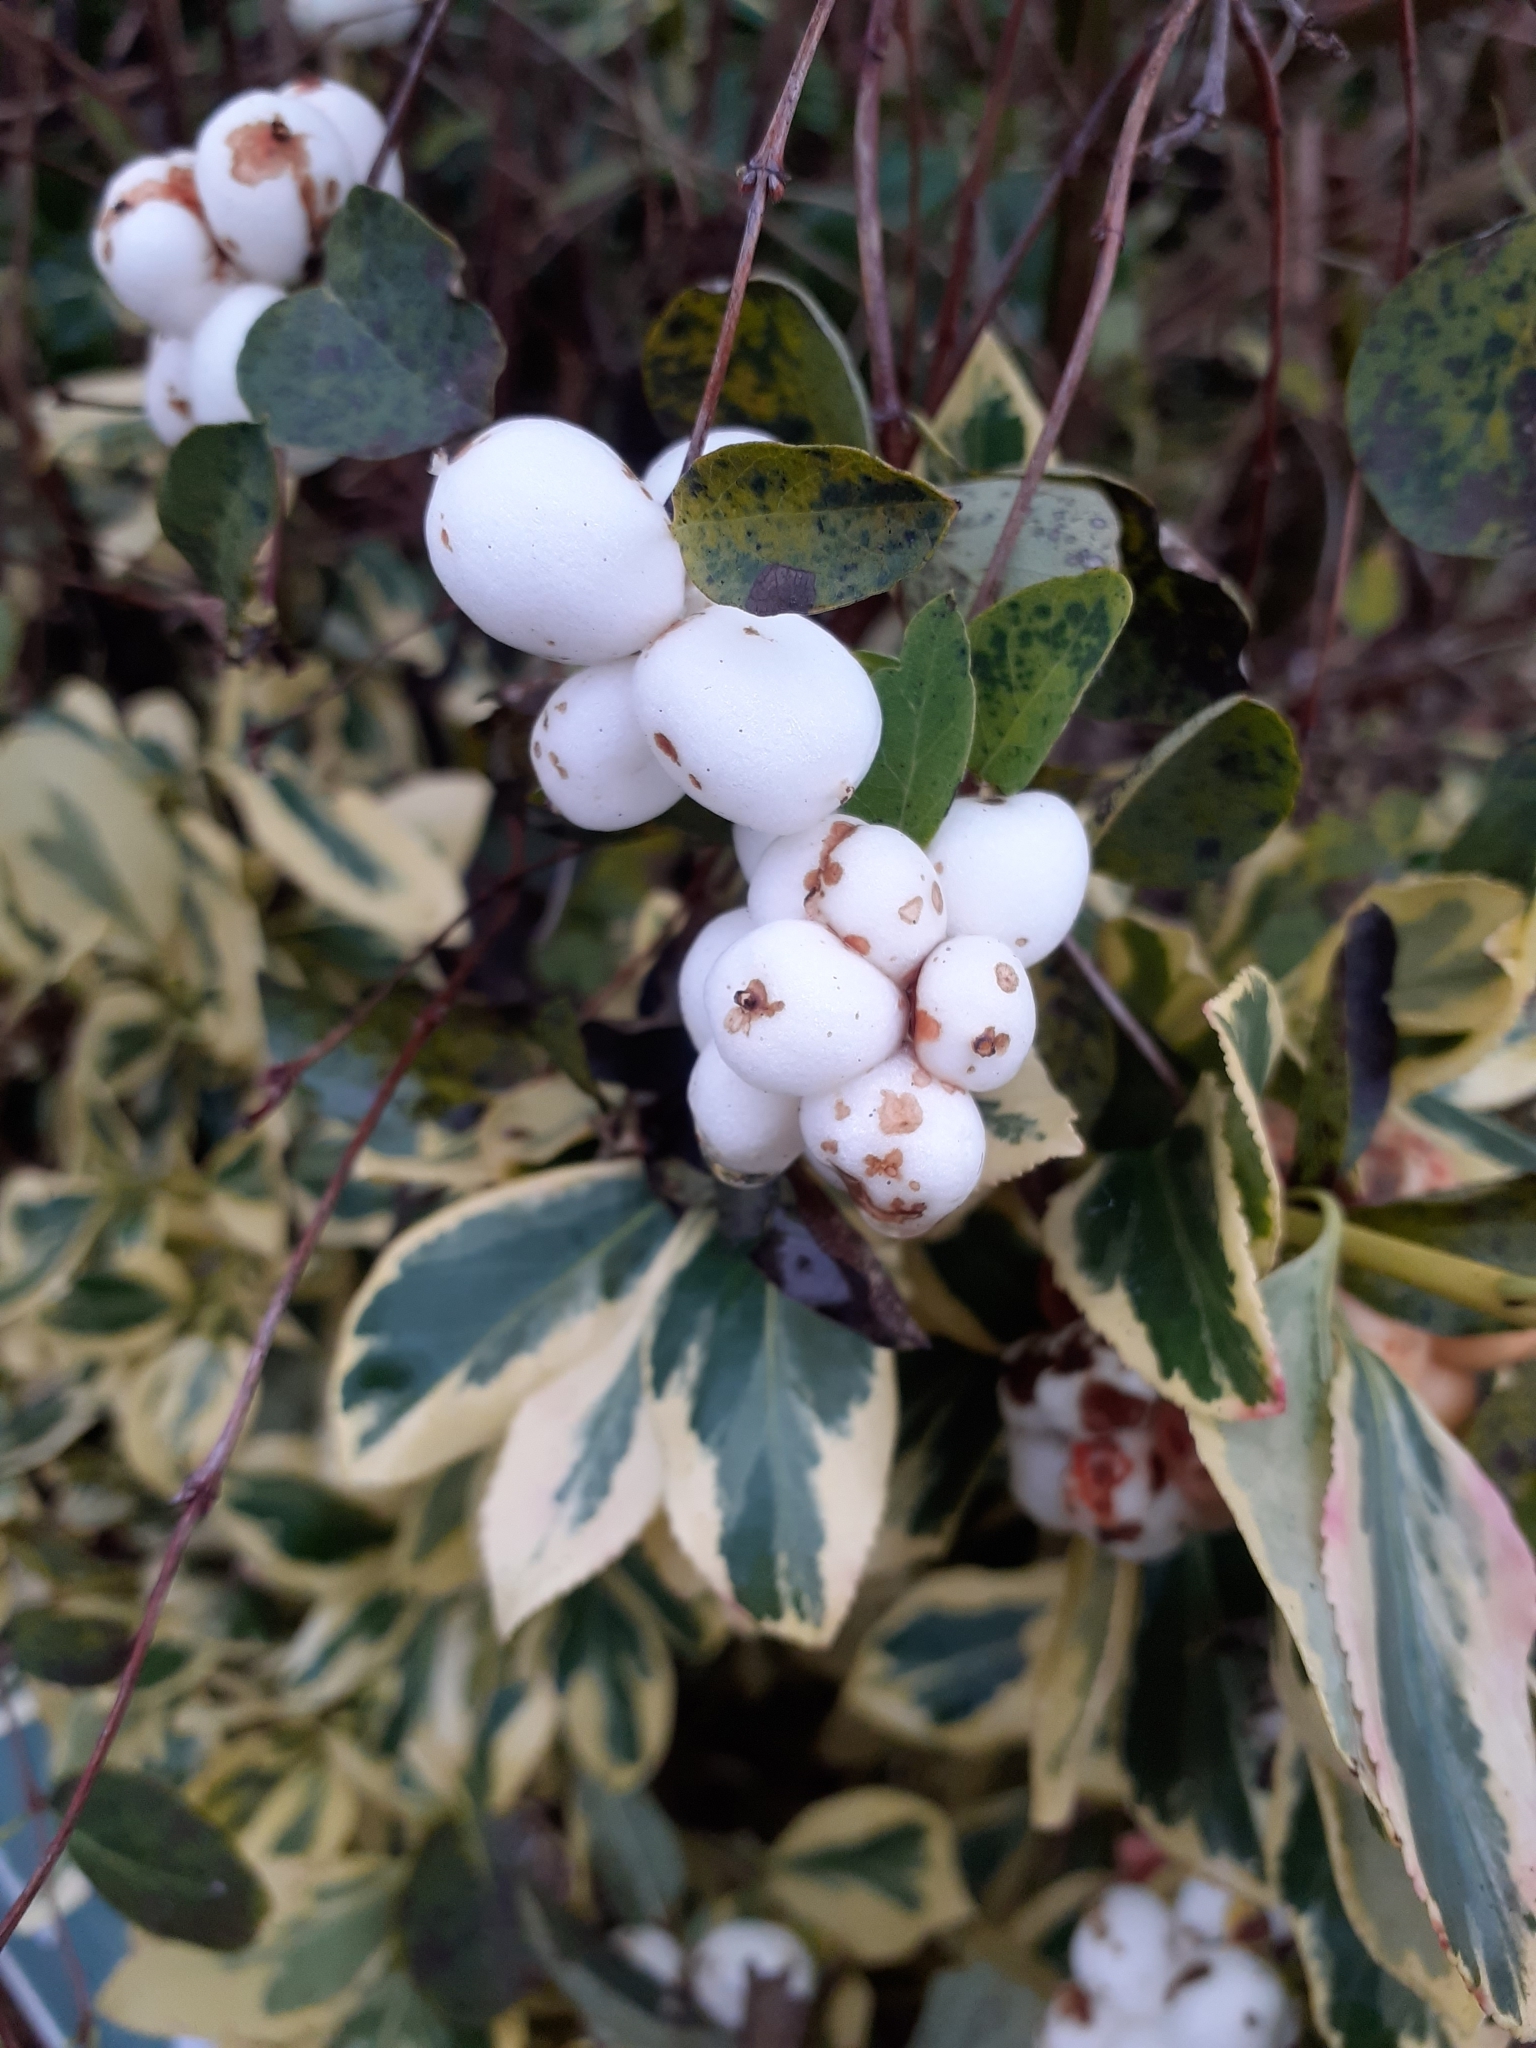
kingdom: Plantae
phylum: Tracheophyta
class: Magnoliopsida
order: Dipsacales
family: Caprifoliaceae
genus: Symphoricarpos
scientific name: Symphoricarpos albus
